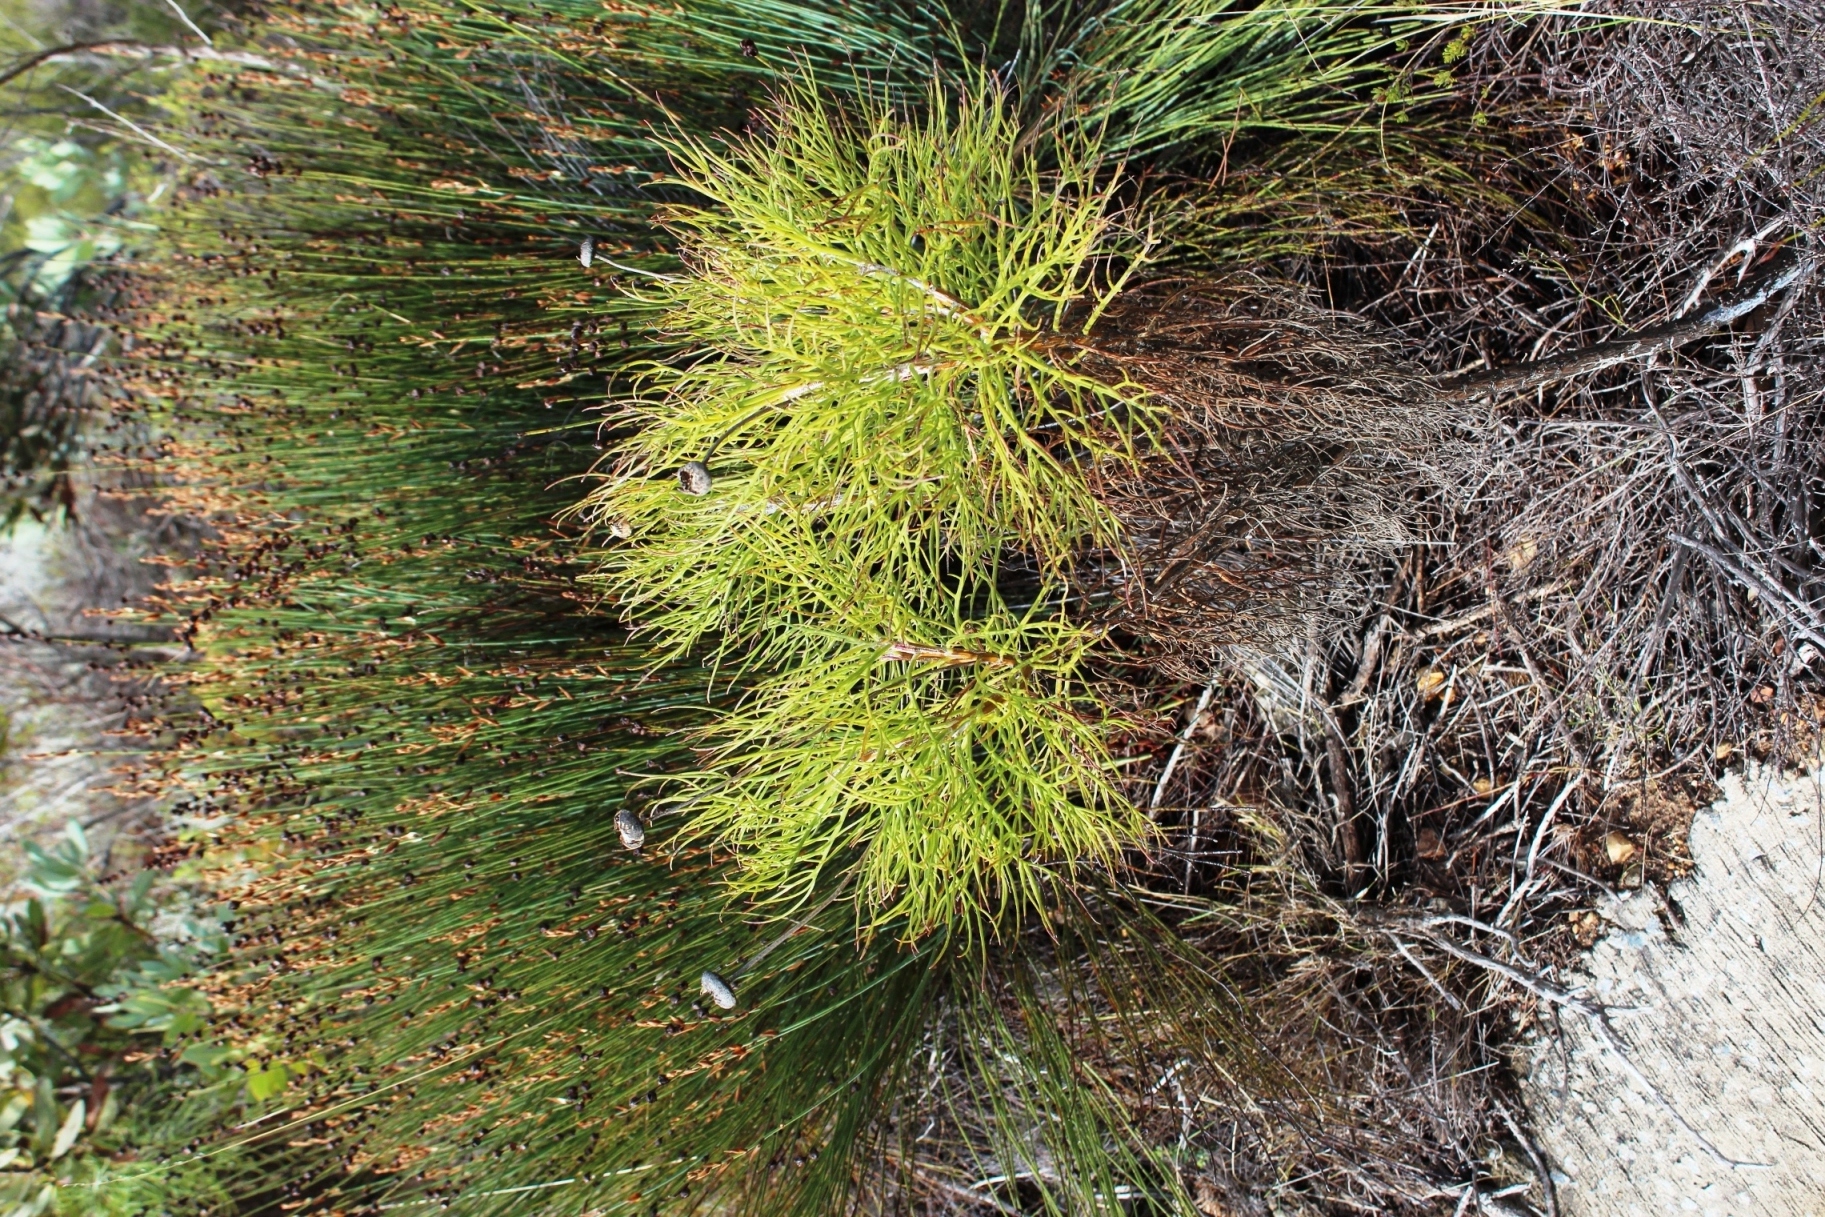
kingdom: Plantae
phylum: Tracheophyta
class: Magnoliopsida
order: Asterales
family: Asteraceae
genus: Euryops
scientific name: Euryops speciosissimus
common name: Clanwilliam daisy
